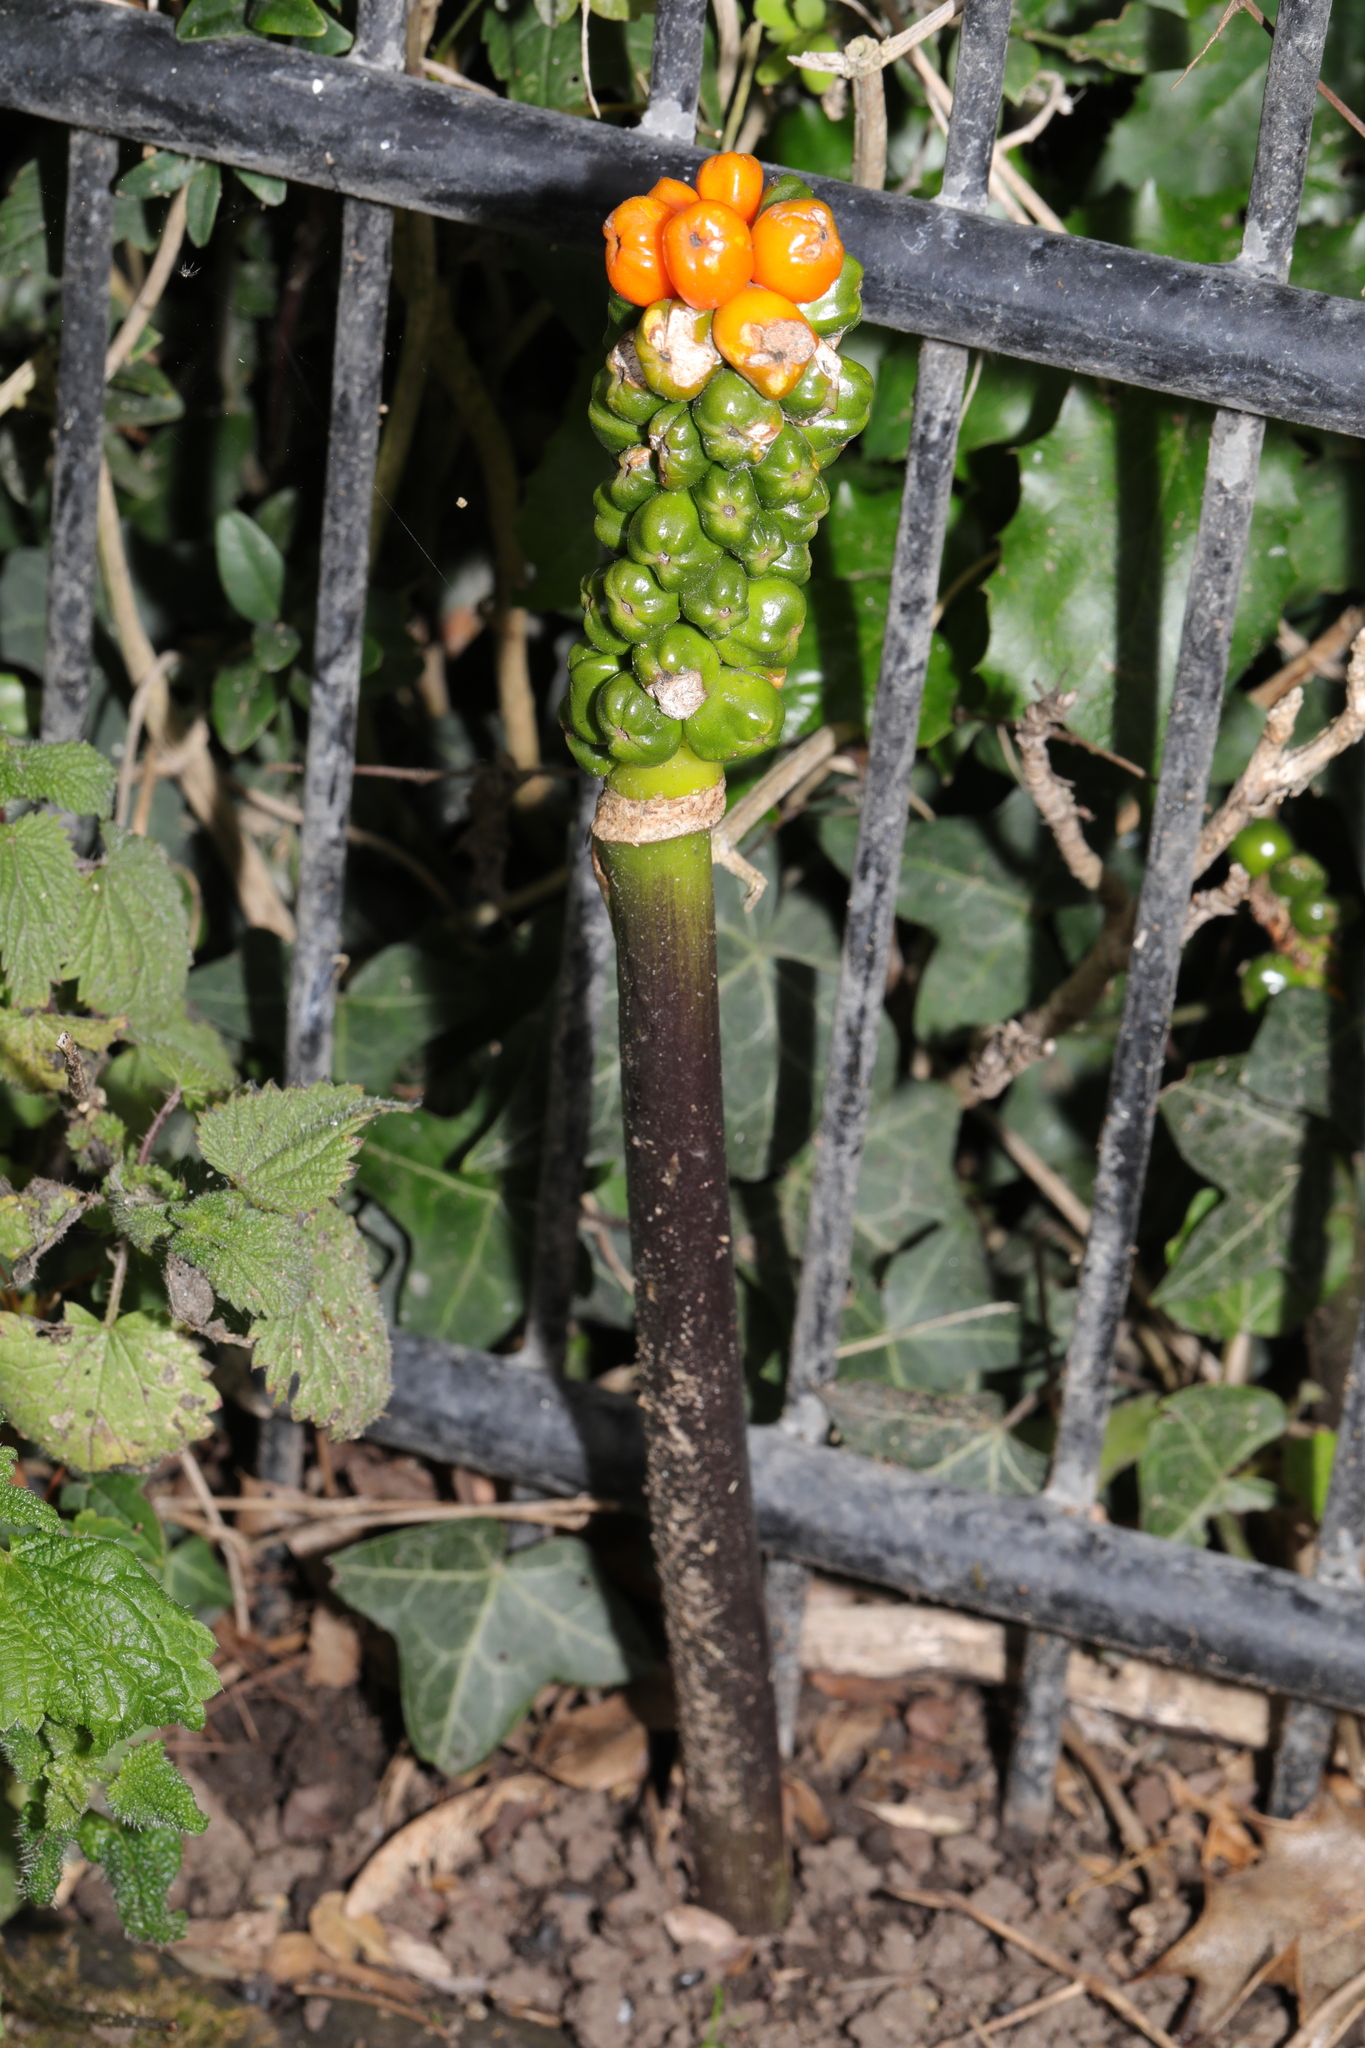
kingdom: Plantae
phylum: Tracheophyta
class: Liliopsida
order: Alismatales
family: Araceae
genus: Arum
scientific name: Arum maculatum
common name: Lords-and-ladies
